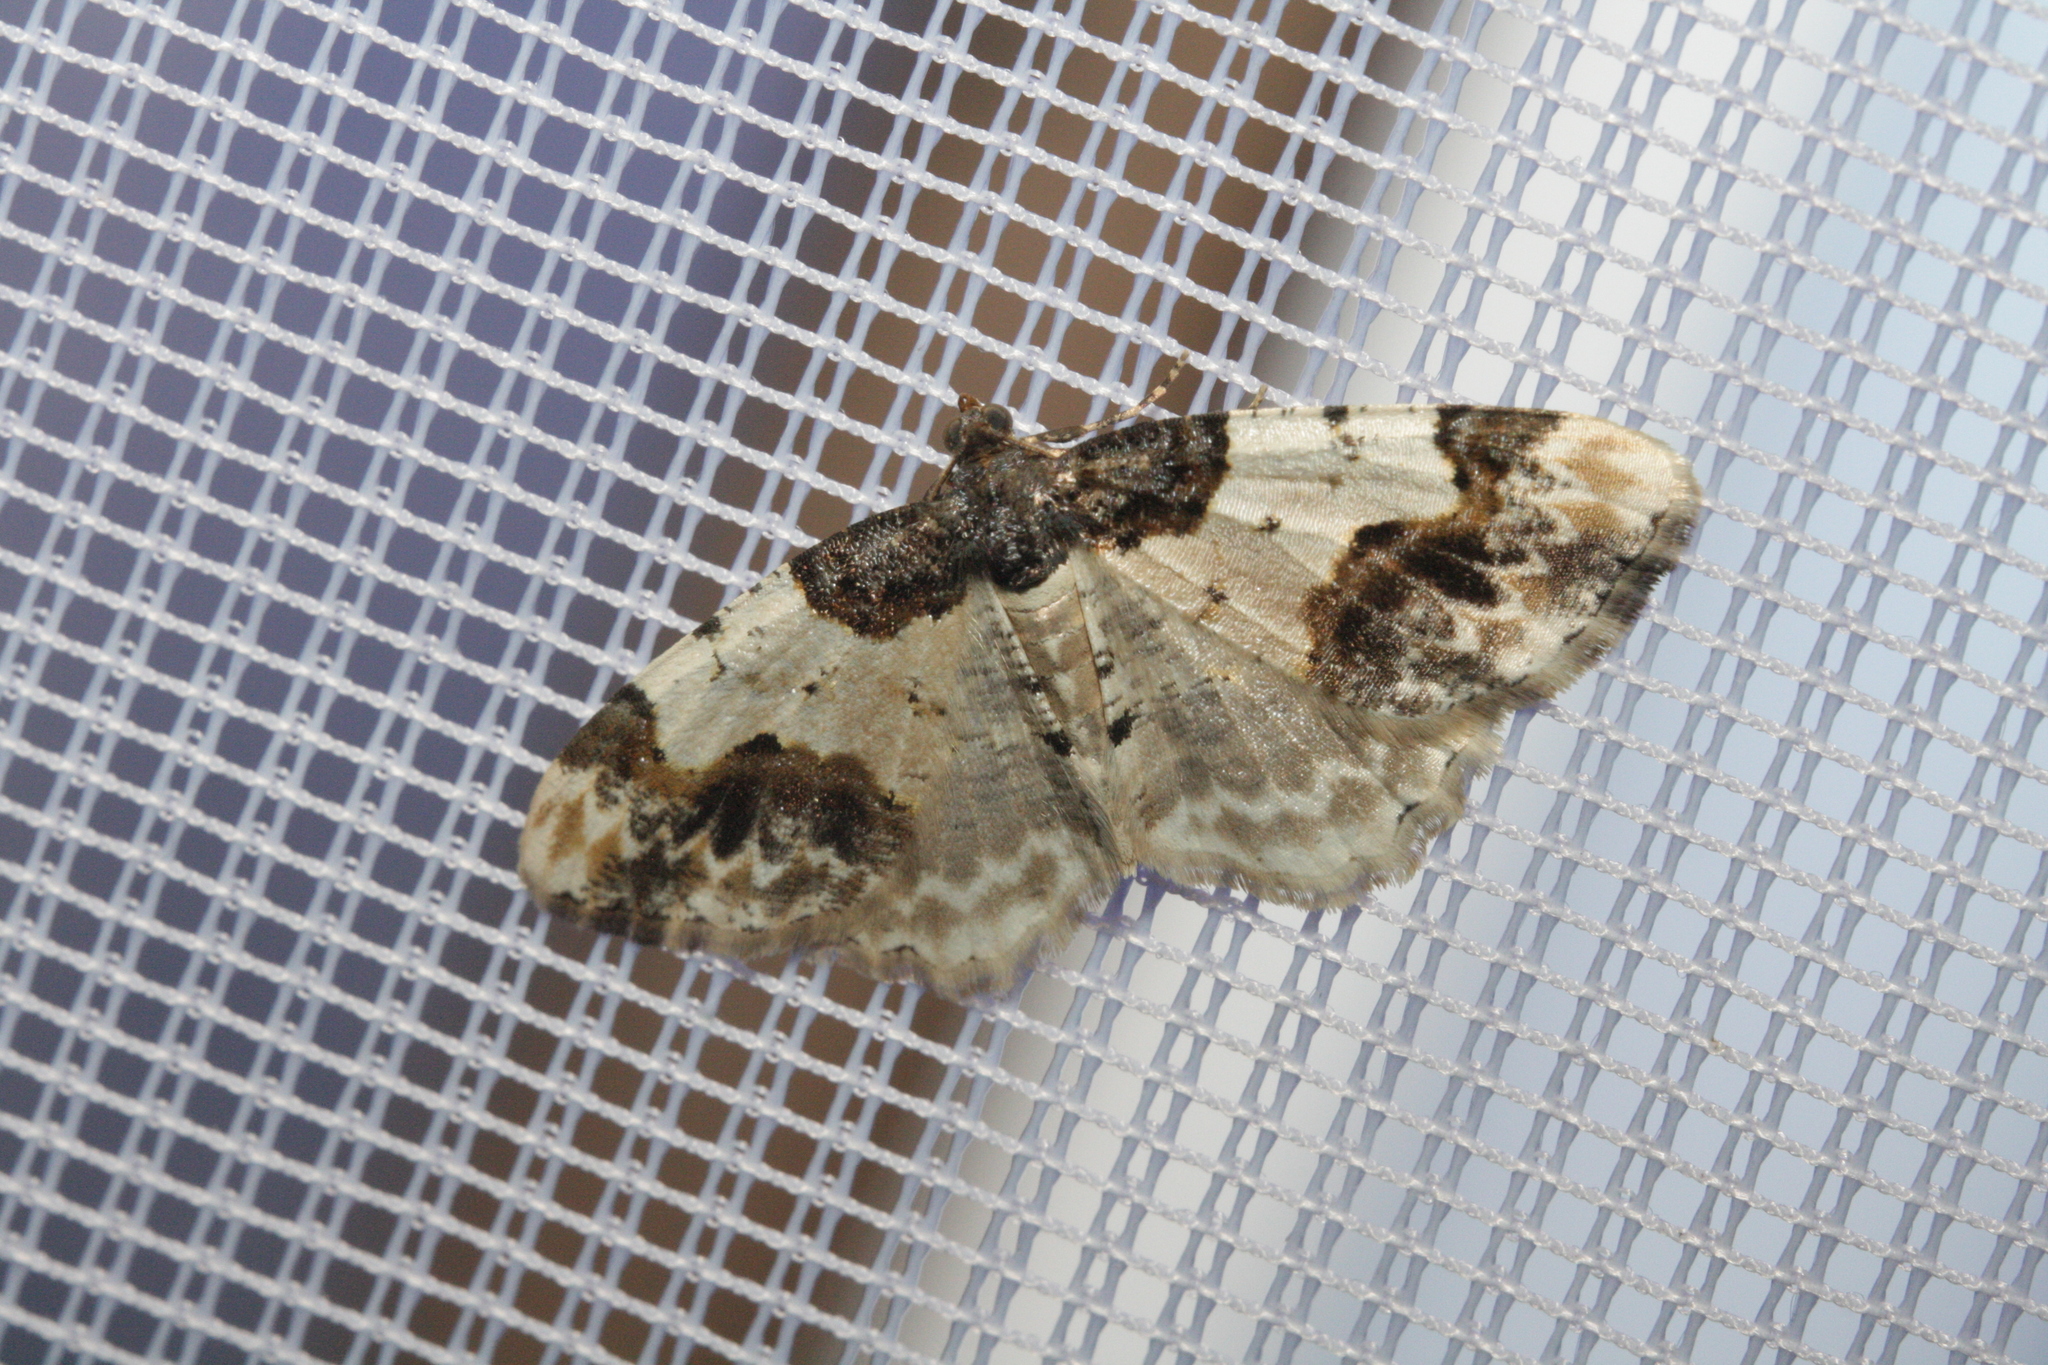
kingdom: Animalia
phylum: Arthropoda
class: Insecta
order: Lepidoptera
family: Geometridae
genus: Ligdia
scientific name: Ligdia adustata
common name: Scorched carpet
